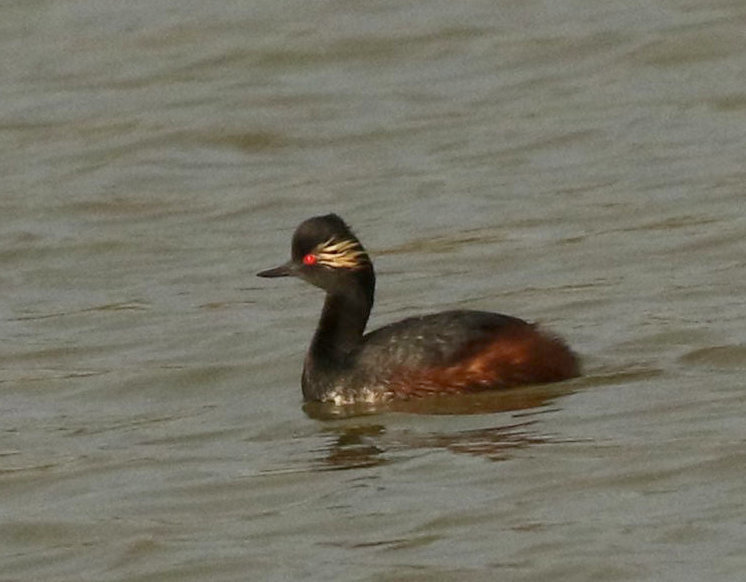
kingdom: Animalia
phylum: Chordata
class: Aves
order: Podicipediformes
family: Podicipedidae
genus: Podiceps
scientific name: Podiceps nigricollis
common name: Black-necked grebe
